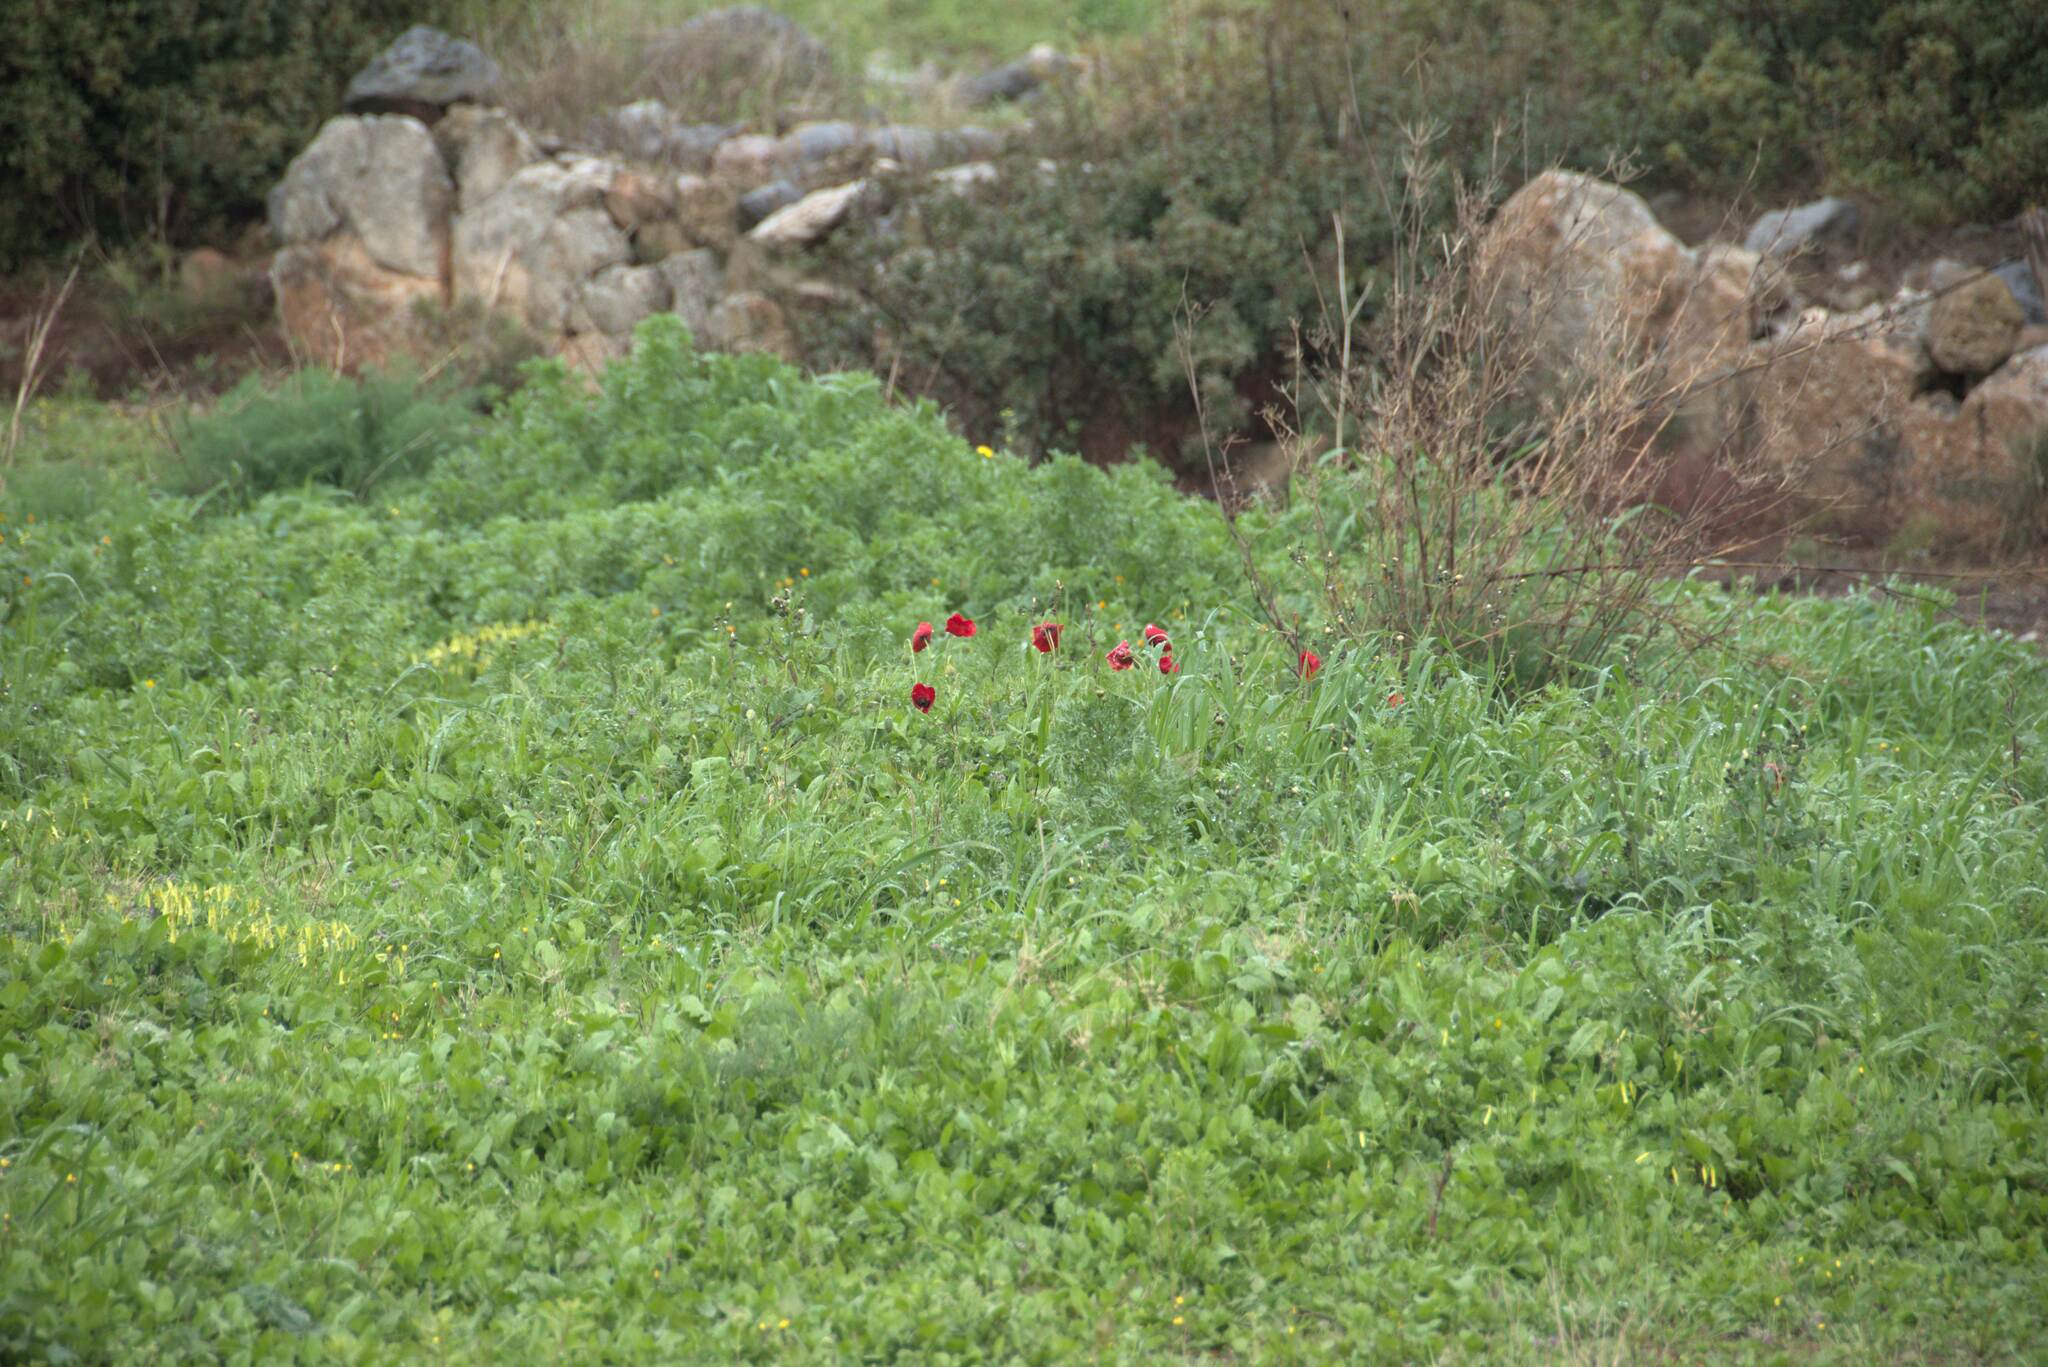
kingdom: Plantae
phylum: Tracheophyta
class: Magnoliopsida
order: Ranunculales
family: Papaveraceae
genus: Papaver
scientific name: Papaver
